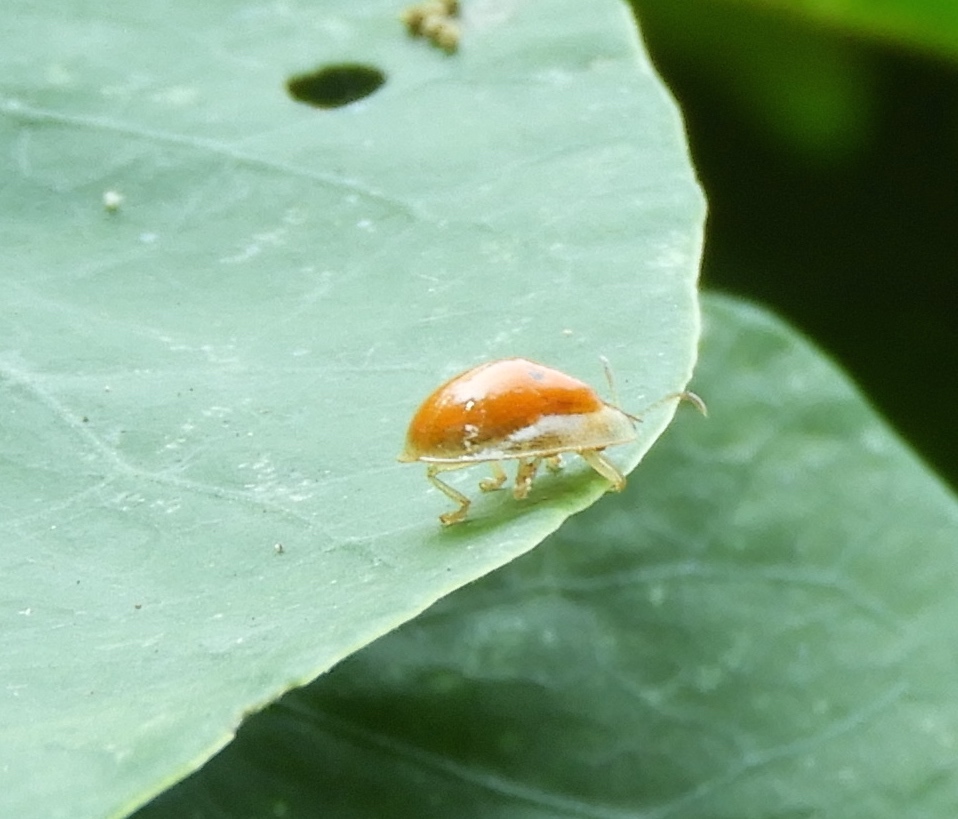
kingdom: Animalia
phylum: Arthropoda
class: Insecta
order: Coleoptera
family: Chrysomelidae
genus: Charidotella
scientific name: Charidotella sexpunctata
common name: Golden tortoise beetle
